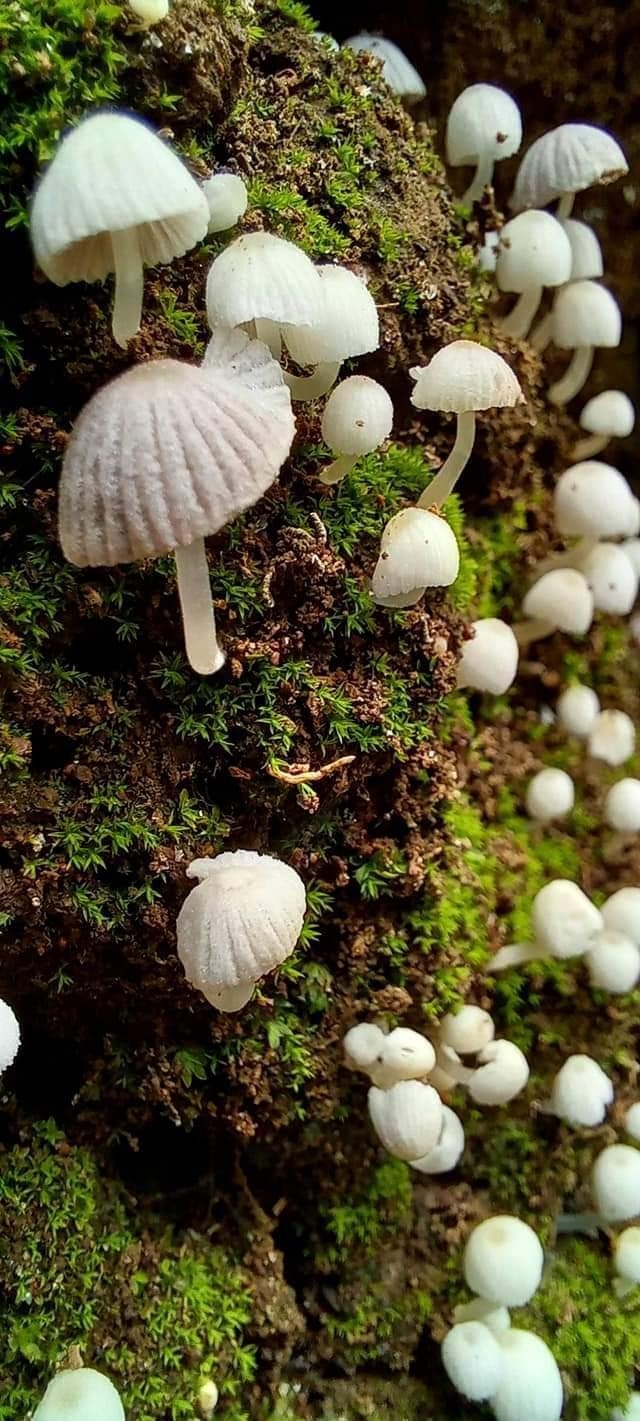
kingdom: Fungi
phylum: Basidiomycota
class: Agaricomycetes
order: Agaricales
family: Psathyrellaceae
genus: Coprinellus
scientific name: Coprinellus disseminatus
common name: Fairies' bonnets
